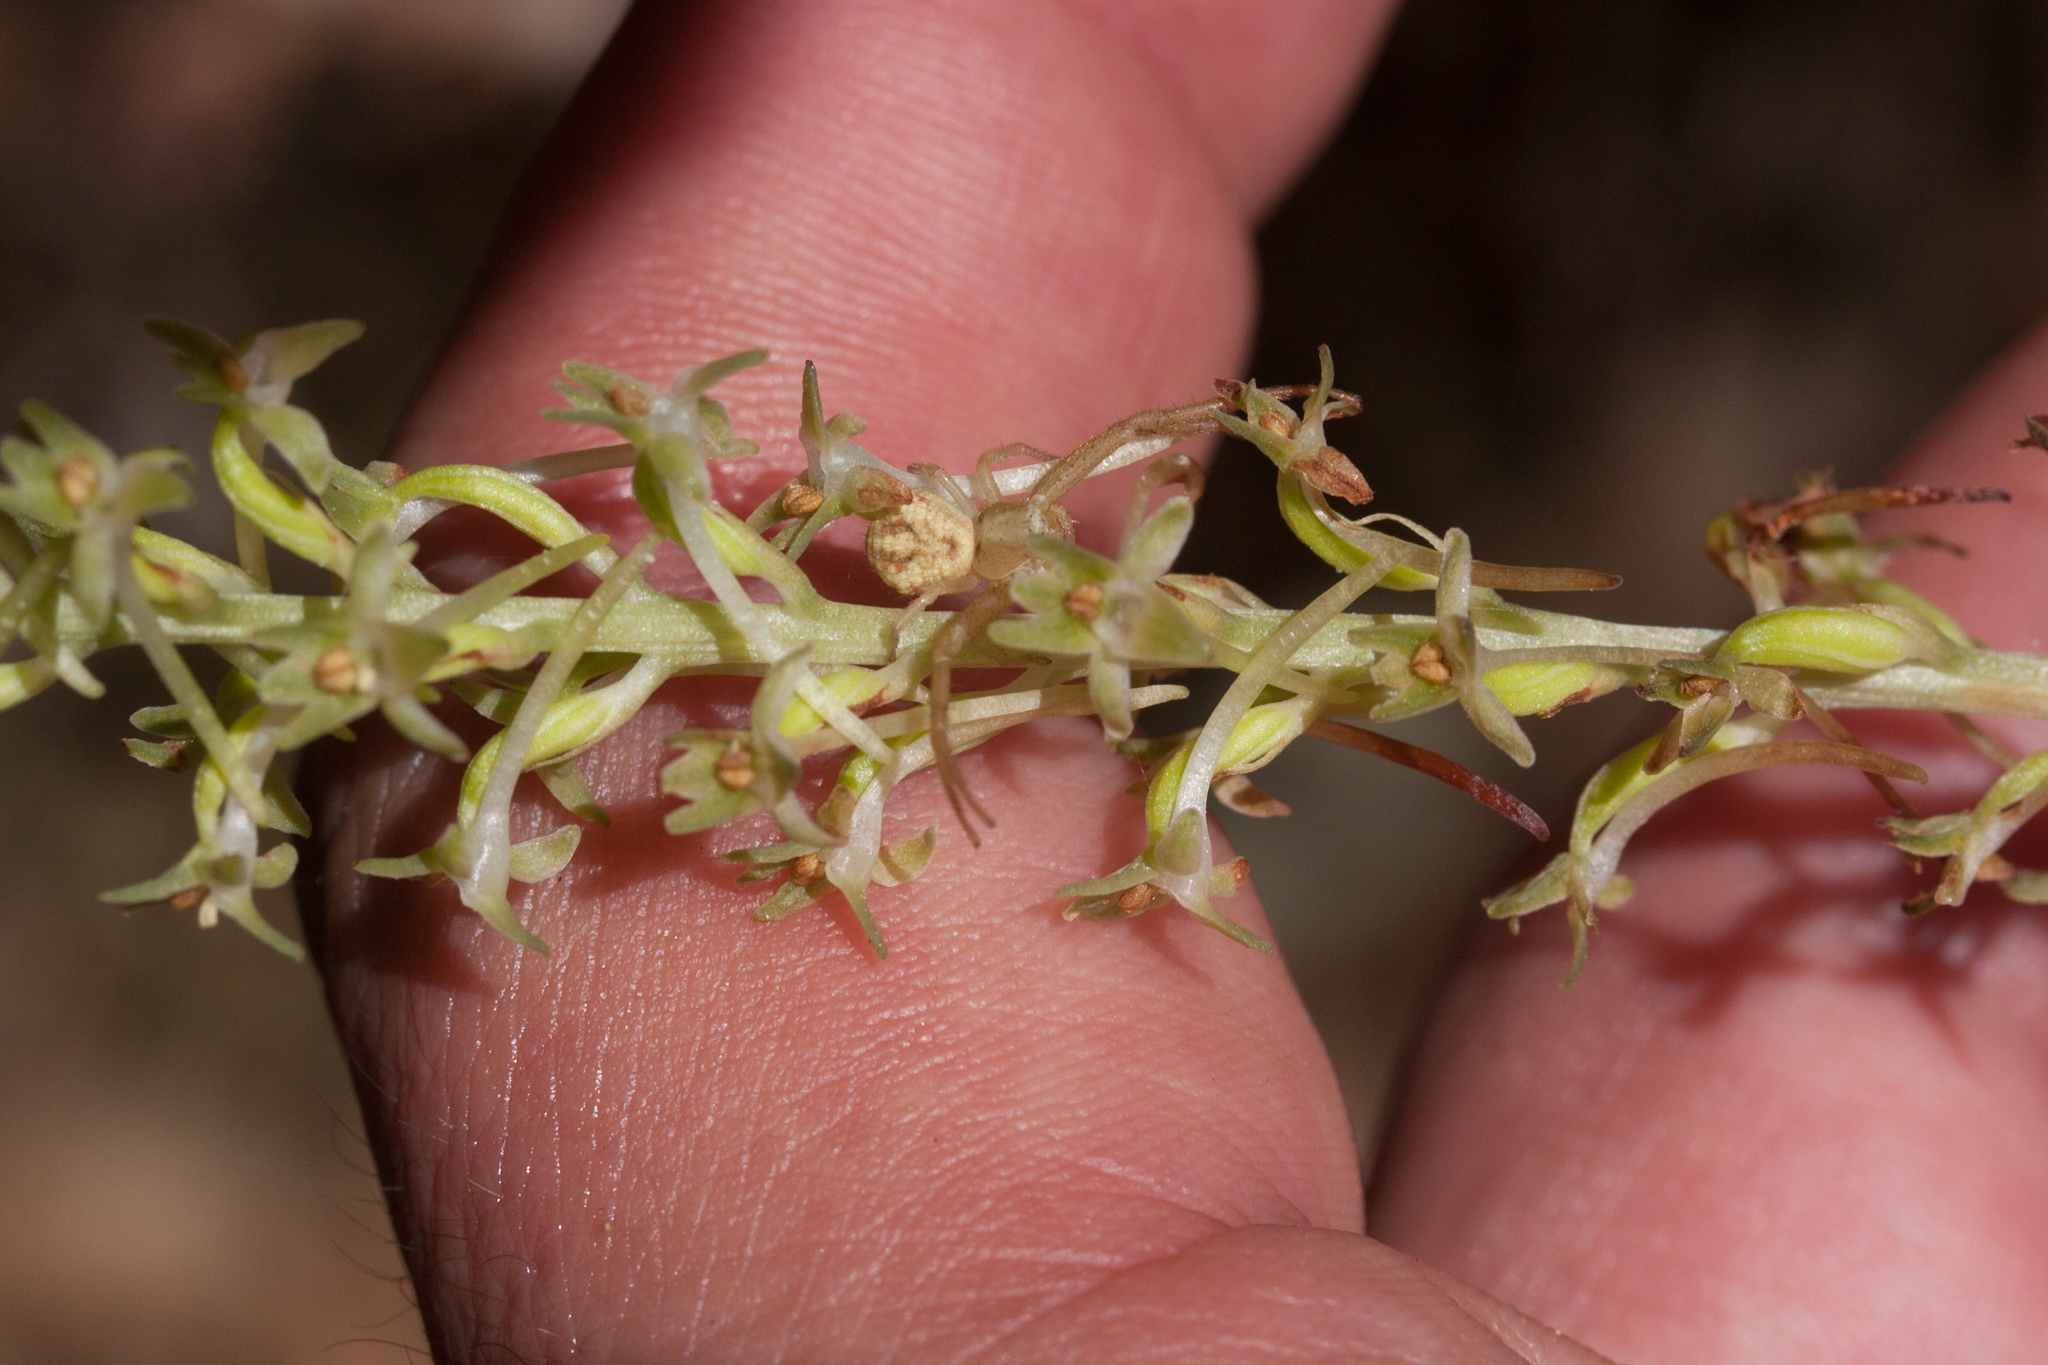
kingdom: Plantae
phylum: Tracheophyta
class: Liliopsida
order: Asparagales
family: Orchidaceae
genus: Platanthera
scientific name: Platanthera elongata
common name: Dense-flowered rein orchid
